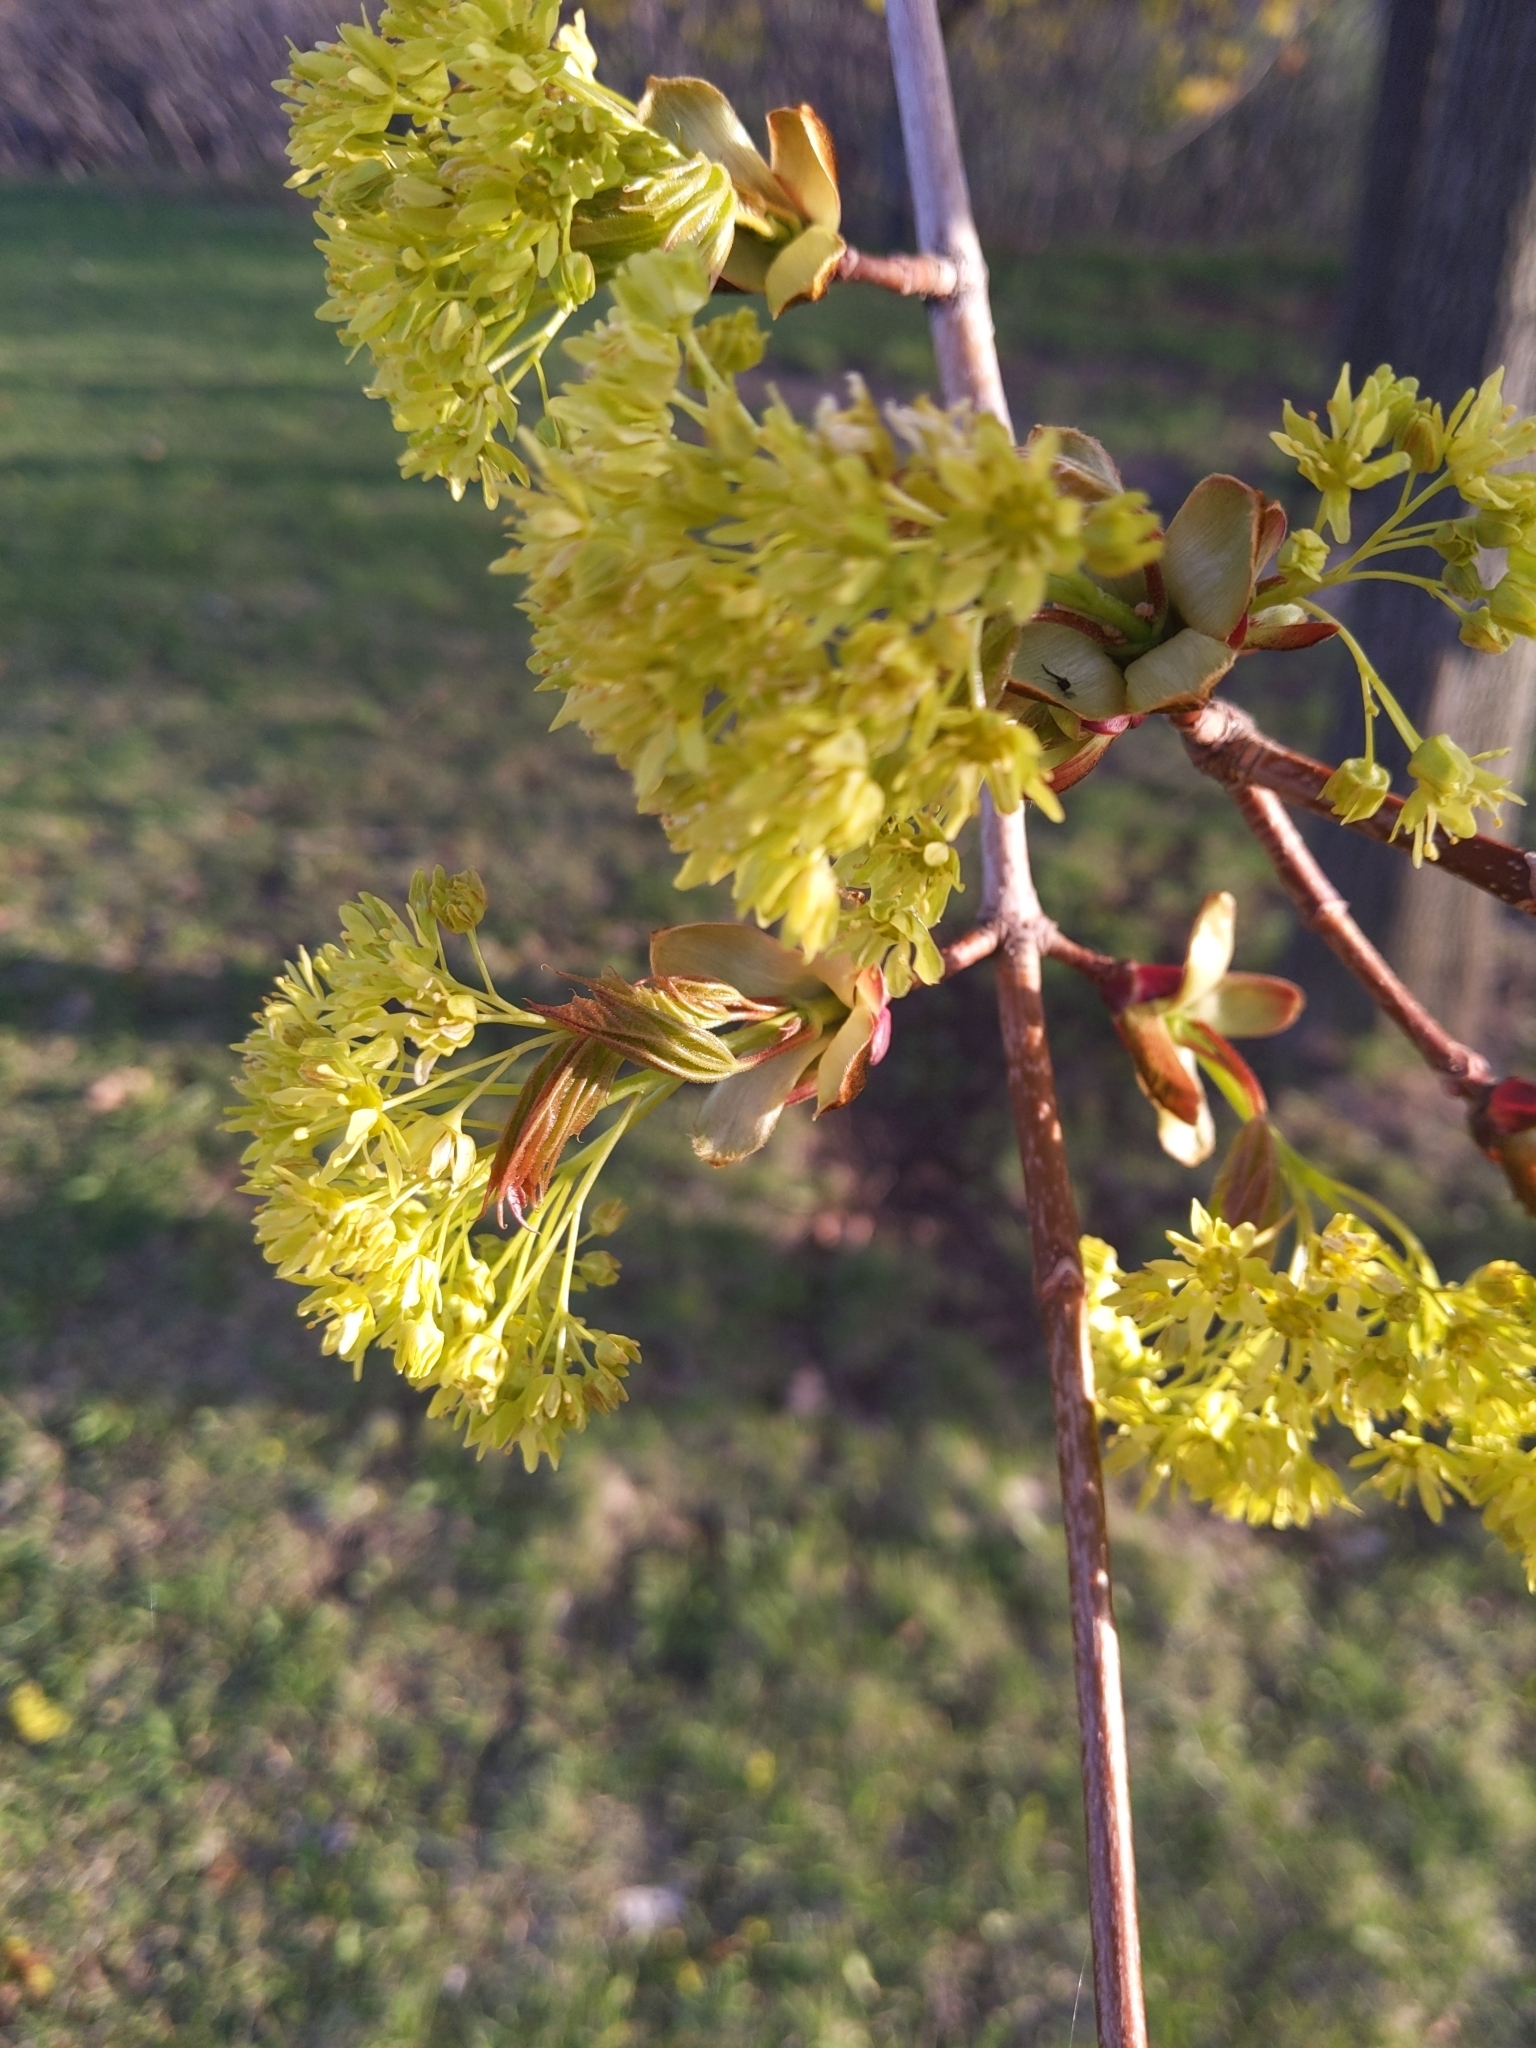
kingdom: Plantae
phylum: Tracheophyta
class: Magnoliopsida
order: Sapindales
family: Sapindaceae
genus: Acer
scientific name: Acer platanoides
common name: Norway maple
